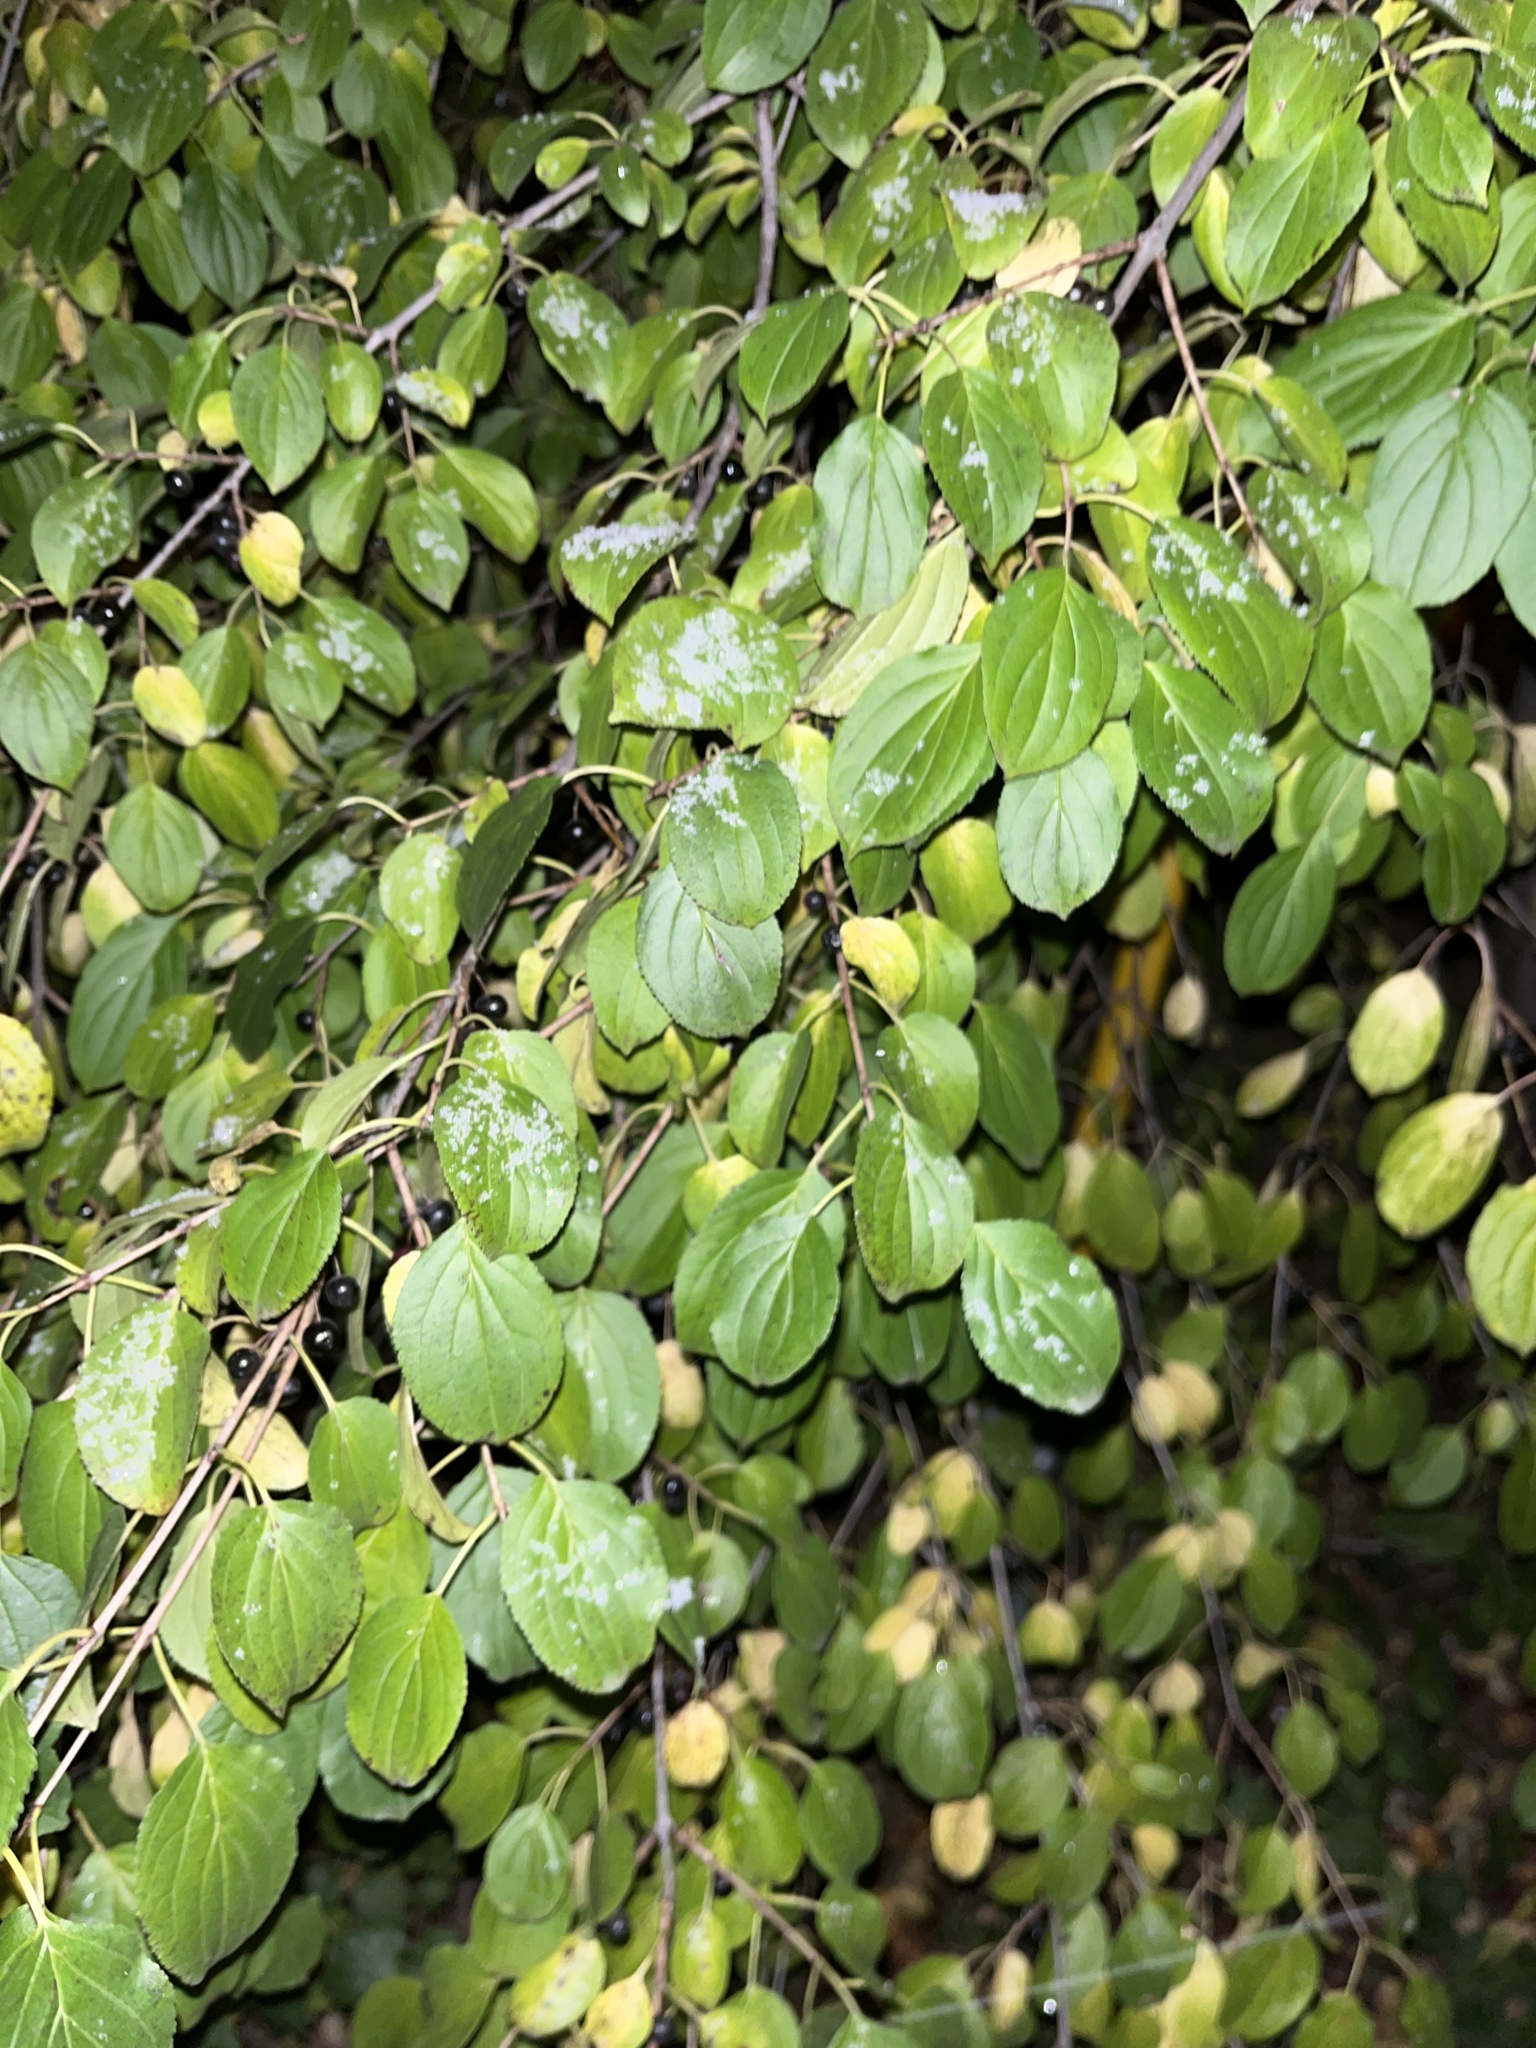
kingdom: Plantae
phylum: Tracheophyta
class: Magnoliopsida
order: Rosales
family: Rhamnaceae
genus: Rhamnus
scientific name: Rhamnus cathartica
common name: Common buckthorn
